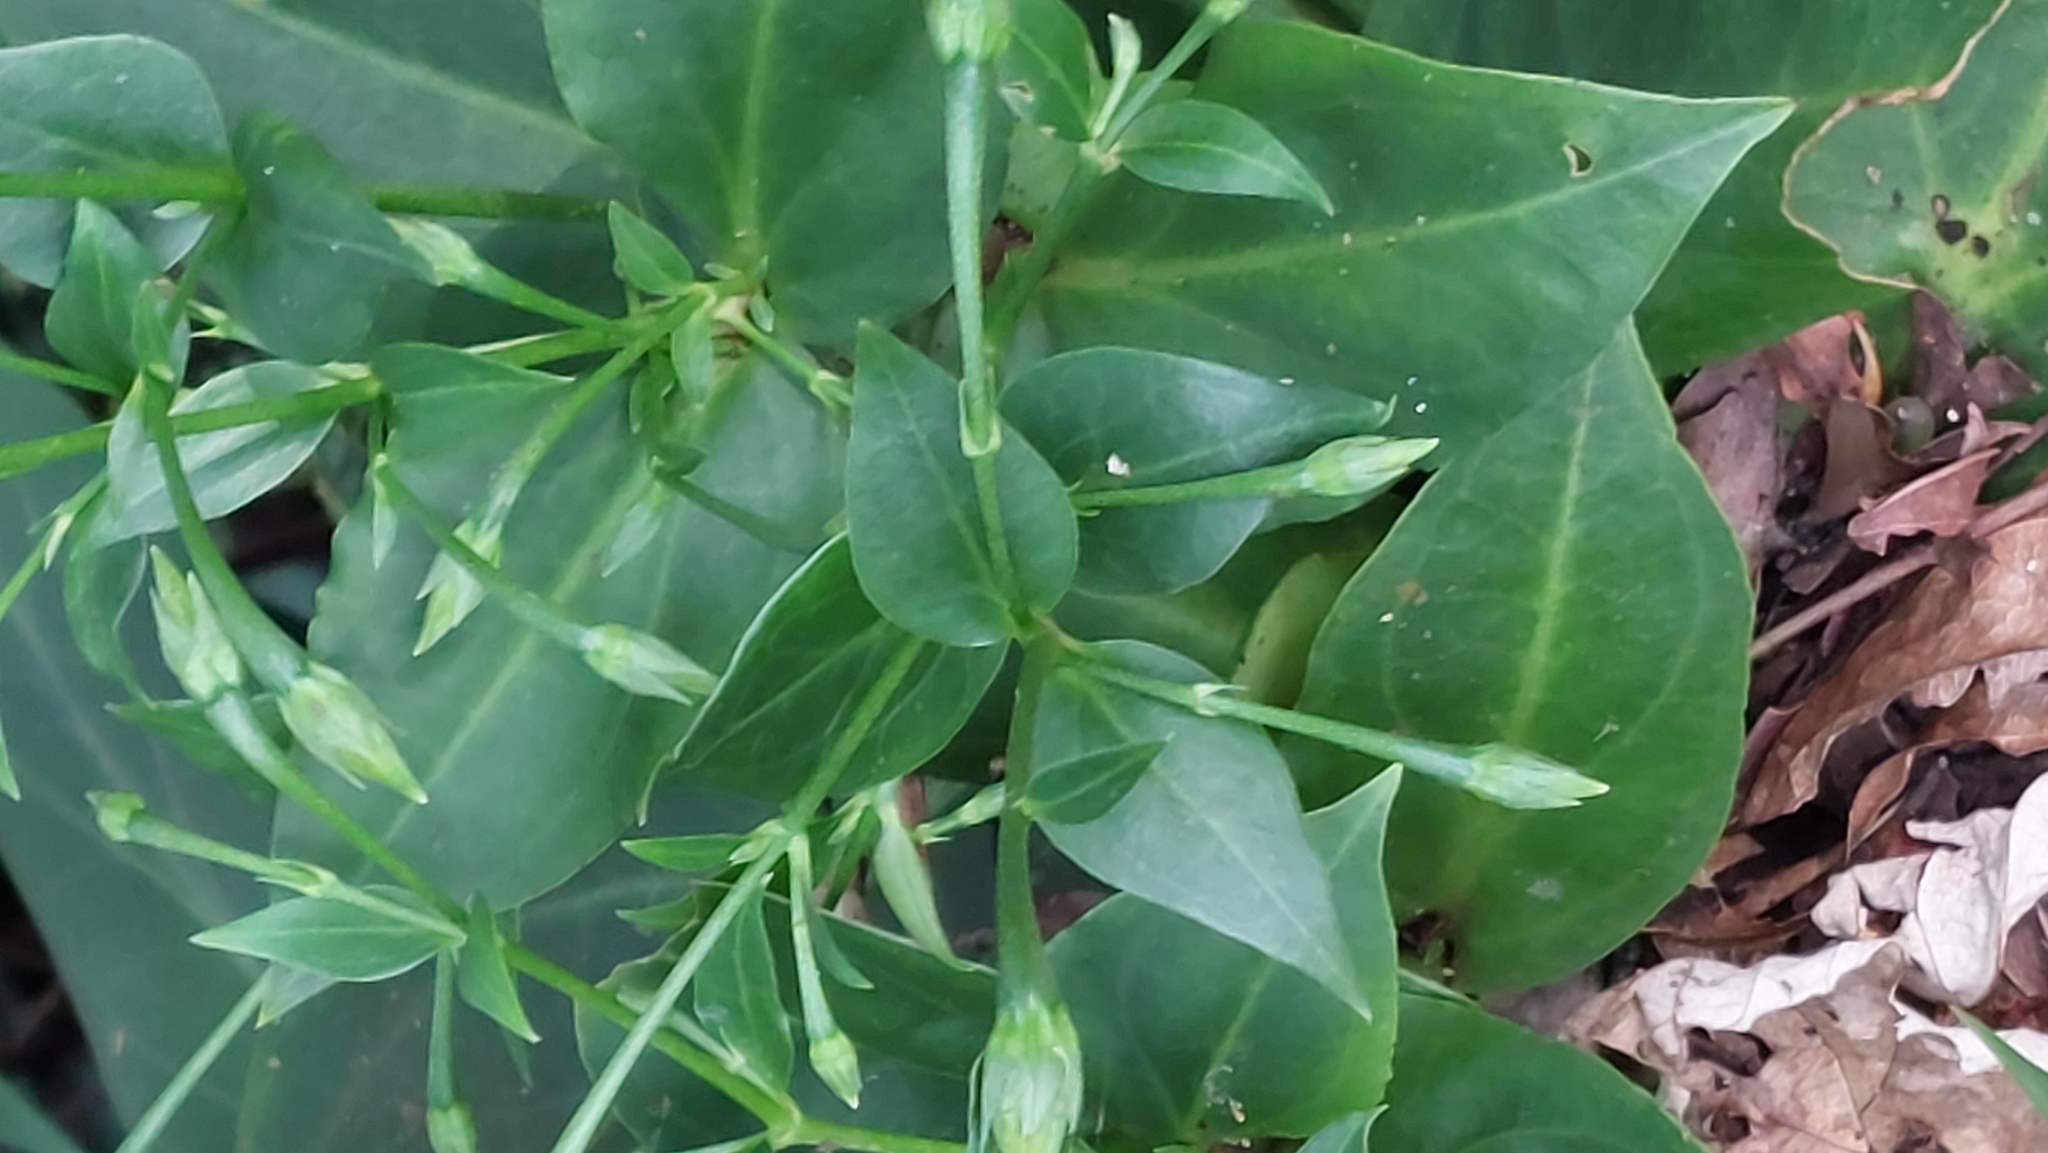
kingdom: Plantae
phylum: Tracheophyta
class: Magnoliopsida
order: Gentianales
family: Gentianaceae
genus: Swertia
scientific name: Swertia shintenensis
